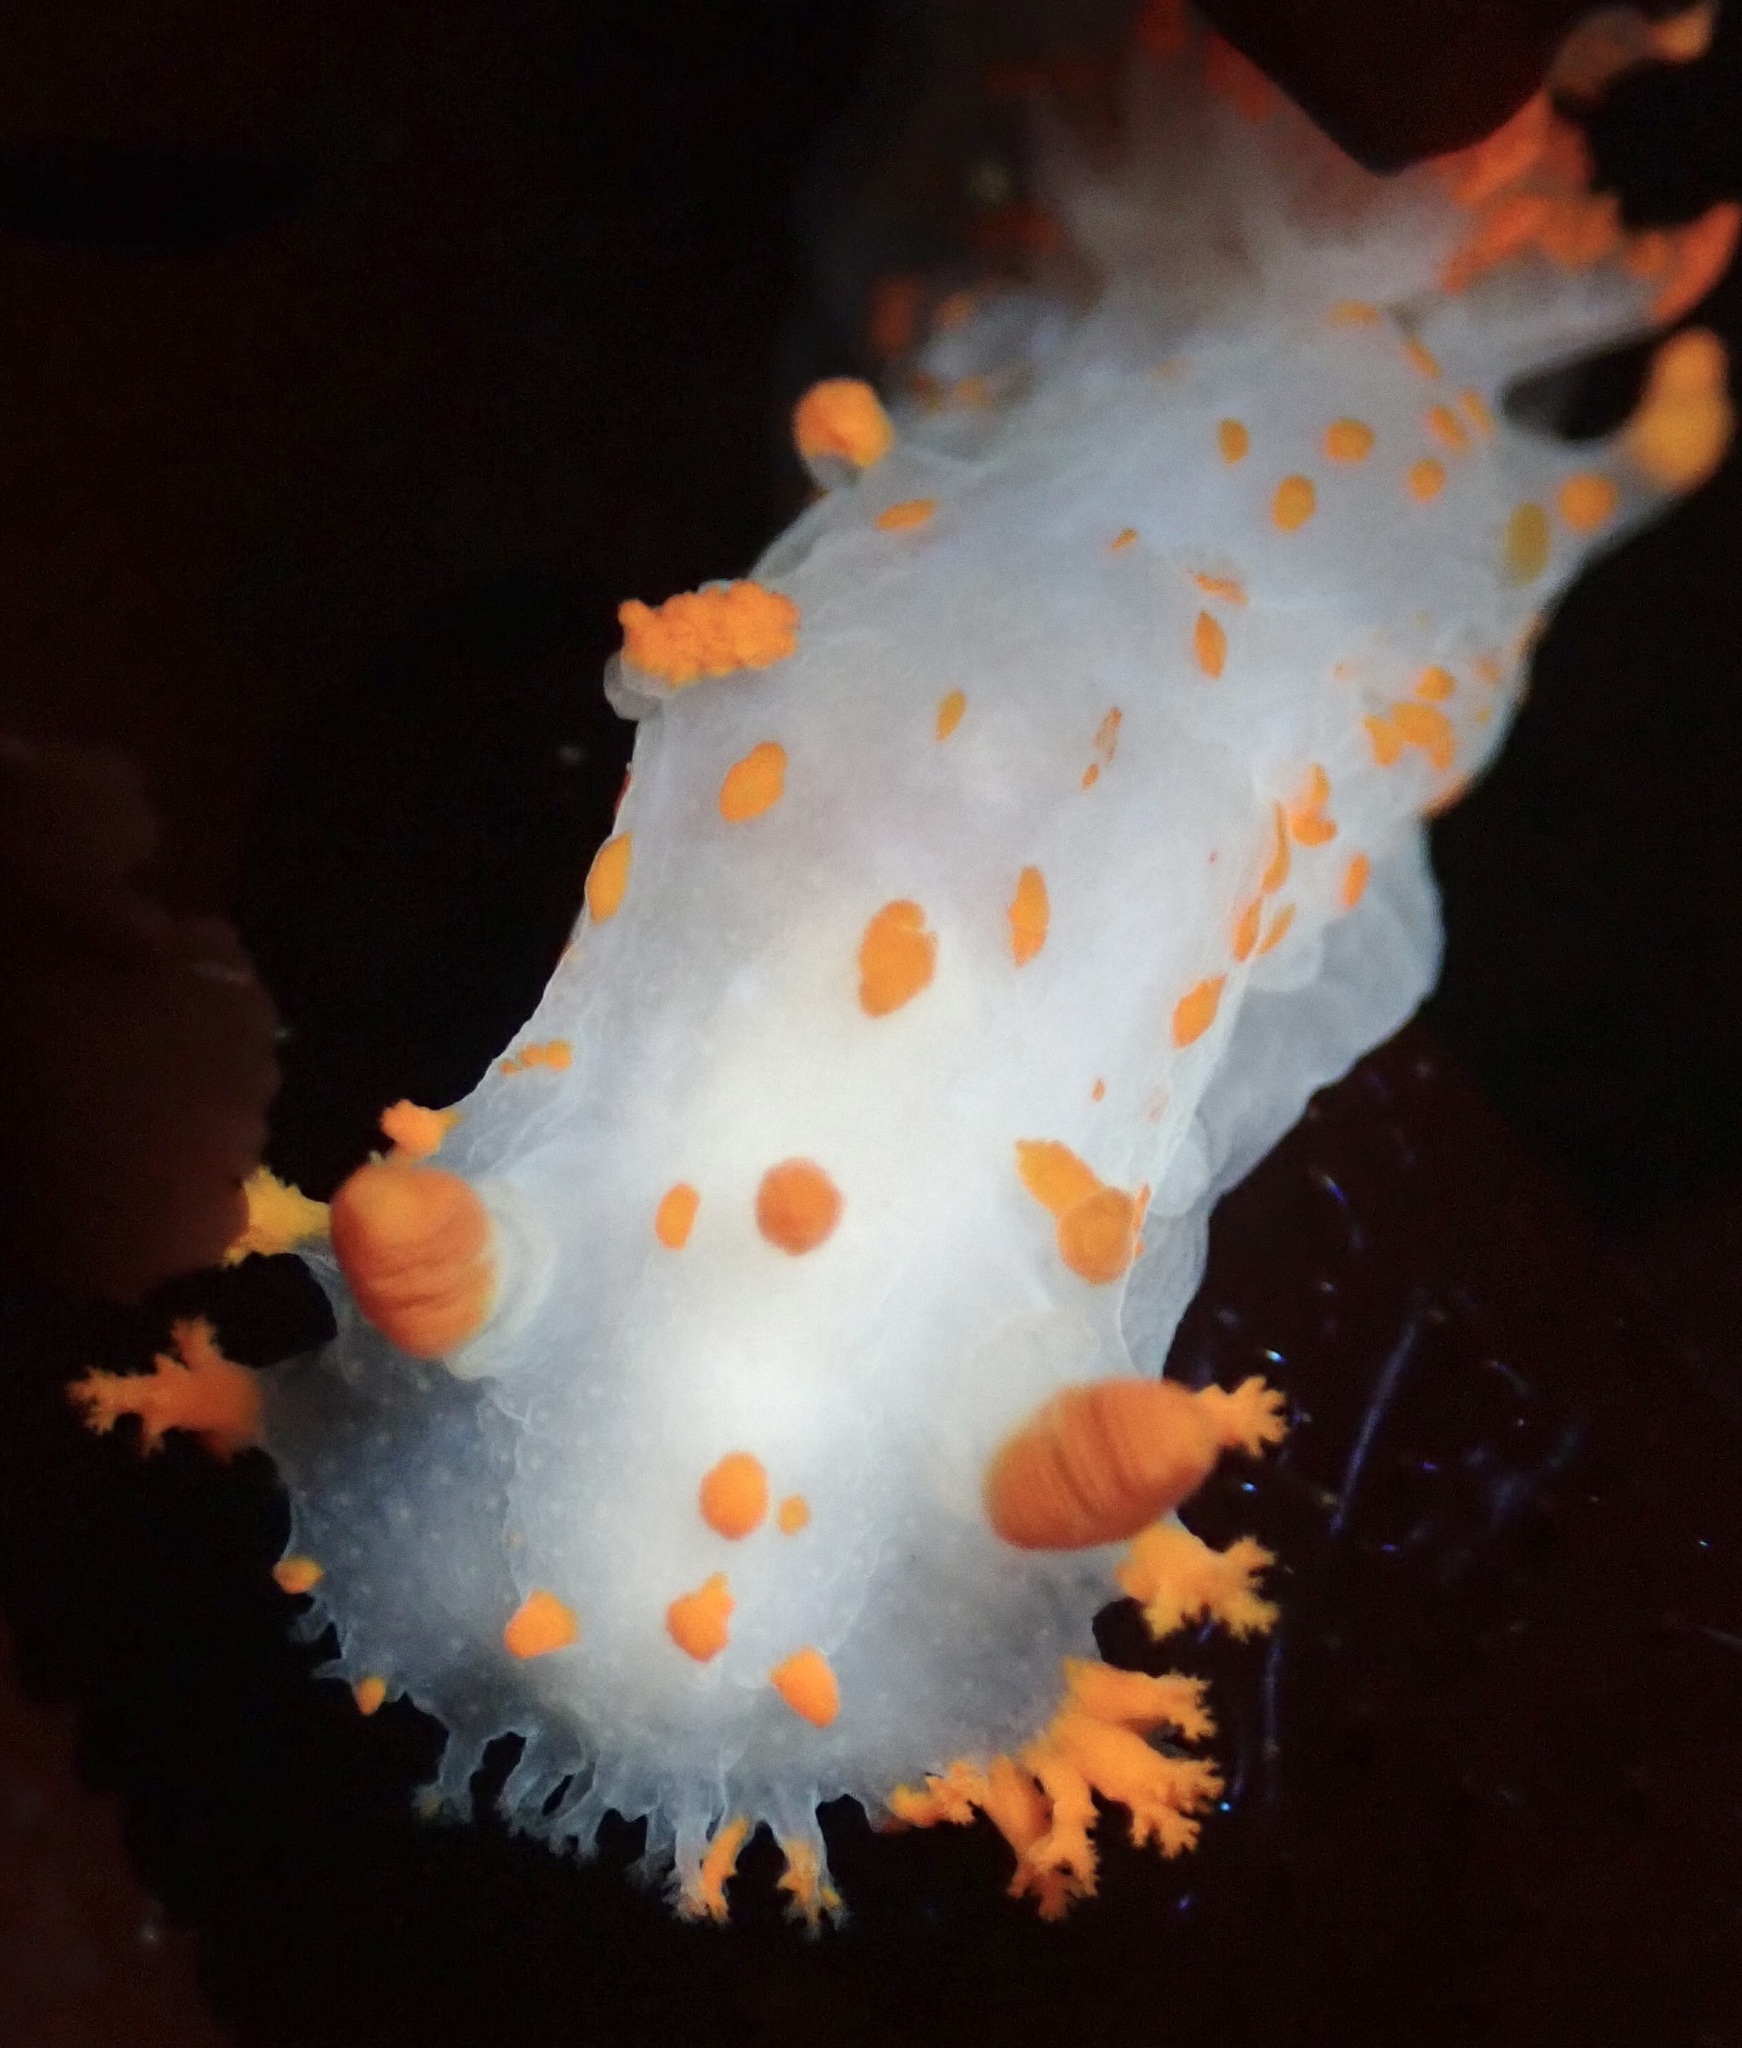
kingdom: Animalia
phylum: Mollusca
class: Gastropoda
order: Nudibranchia
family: Polyceridae
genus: Triopha
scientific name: Triopha catalinae
